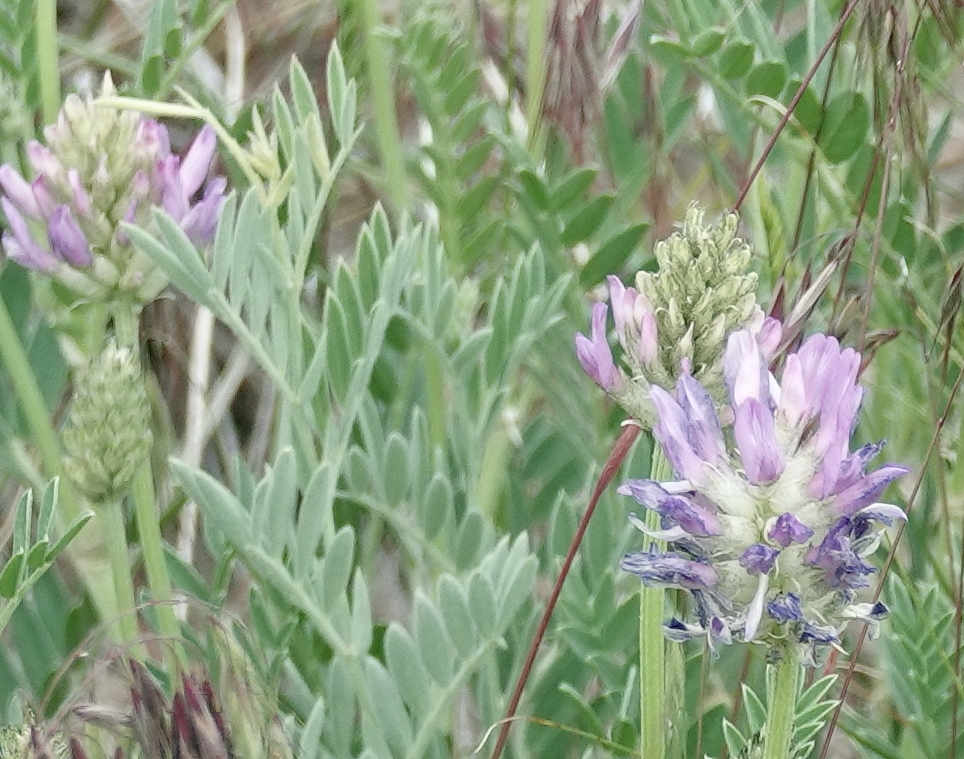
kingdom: Plantae
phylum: Tracheophyta
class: Magnoliopsida
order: Fabales
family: Fabaceae
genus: Astragalus
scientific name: Astragalus laxmannii
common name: Laxmann's milk-vetch
